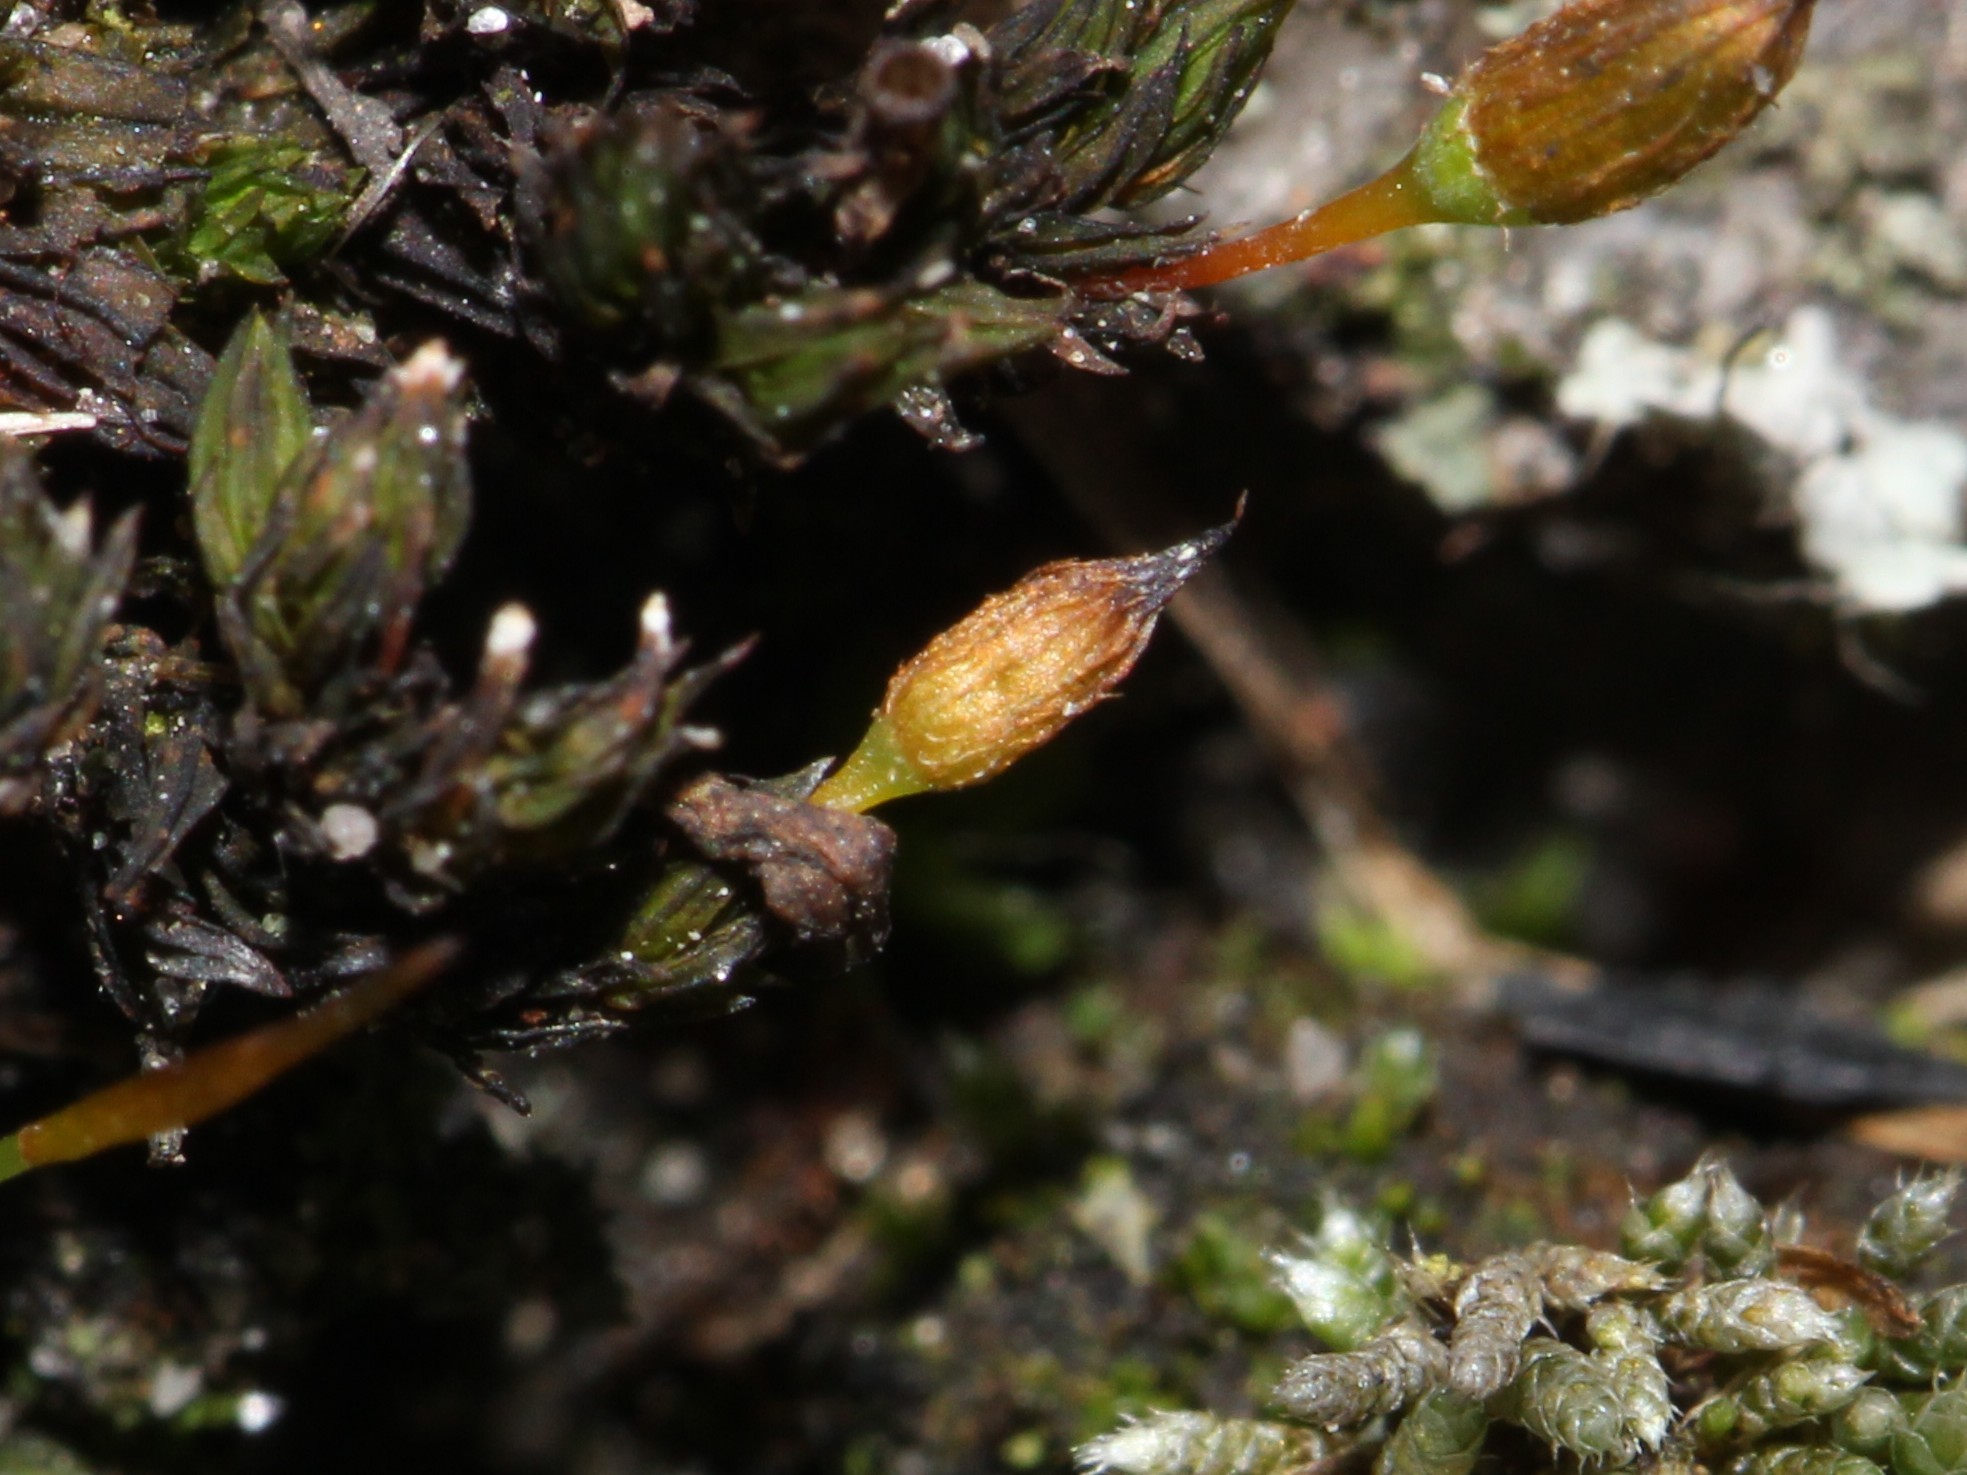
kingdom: Plantae
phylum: Bryophyta
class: Bryopsida
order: Orthotrichales
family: Orthotrichaceae
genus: Orthotrichum
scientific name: Orthotrichum anomalum
